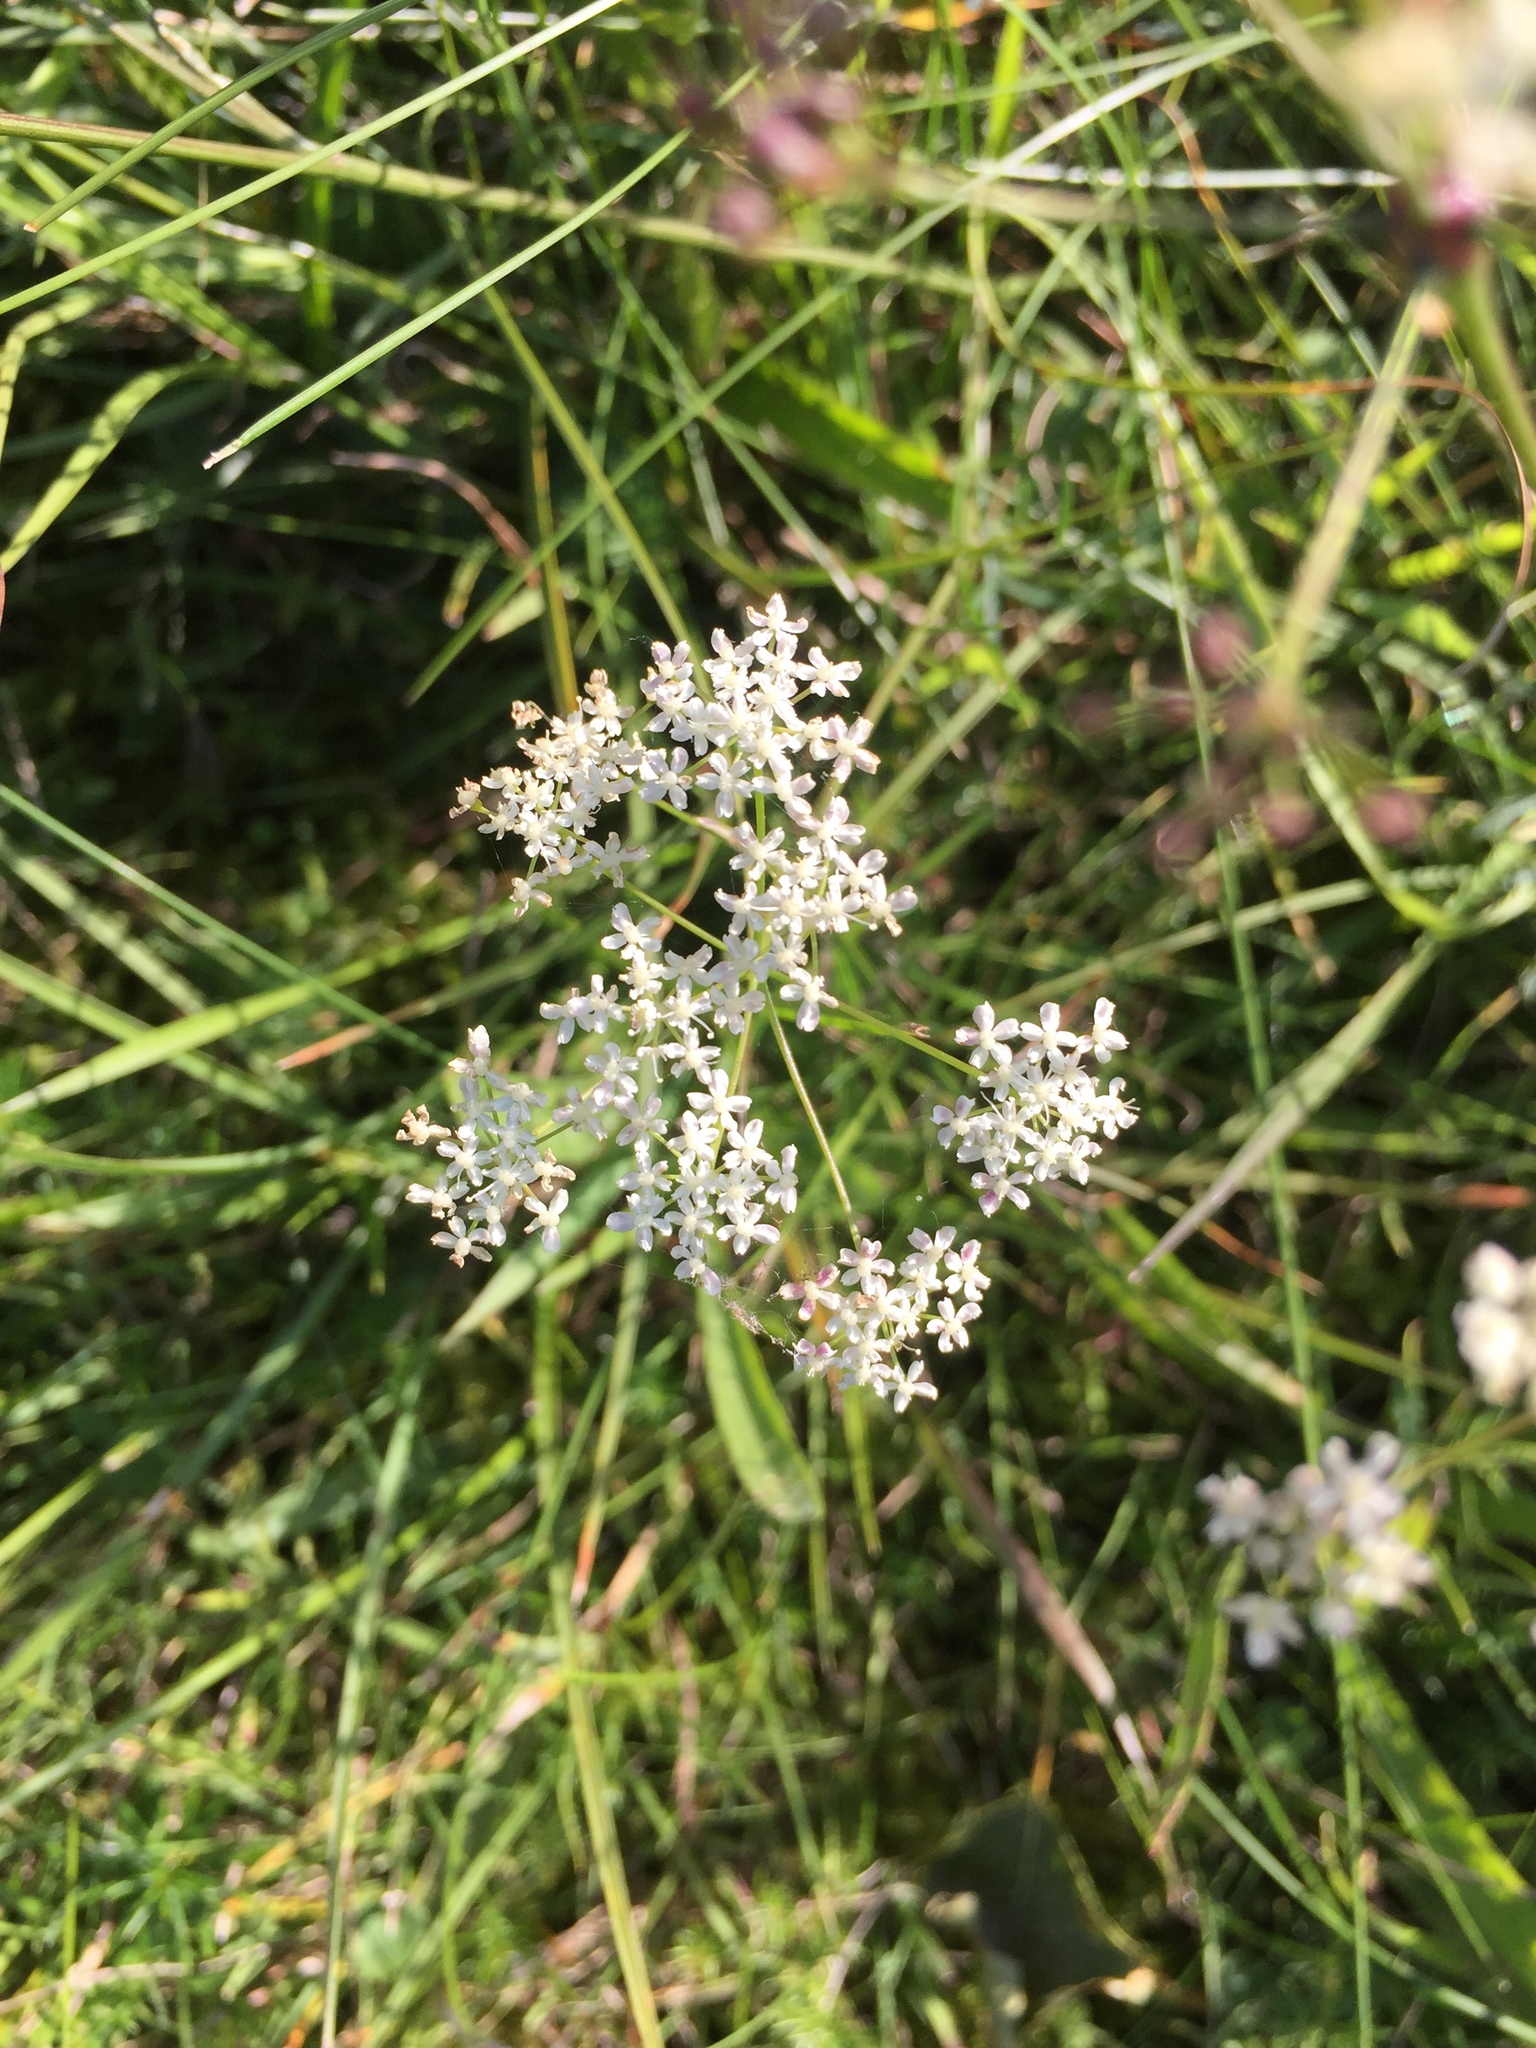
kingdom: Plantae
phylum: Tracheophyta
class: Magnoliopsida
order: Apiales
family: Apiaceae
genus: Pimpinella
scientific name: Pimpinella saxifraga
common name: Burnet-saxifrage
